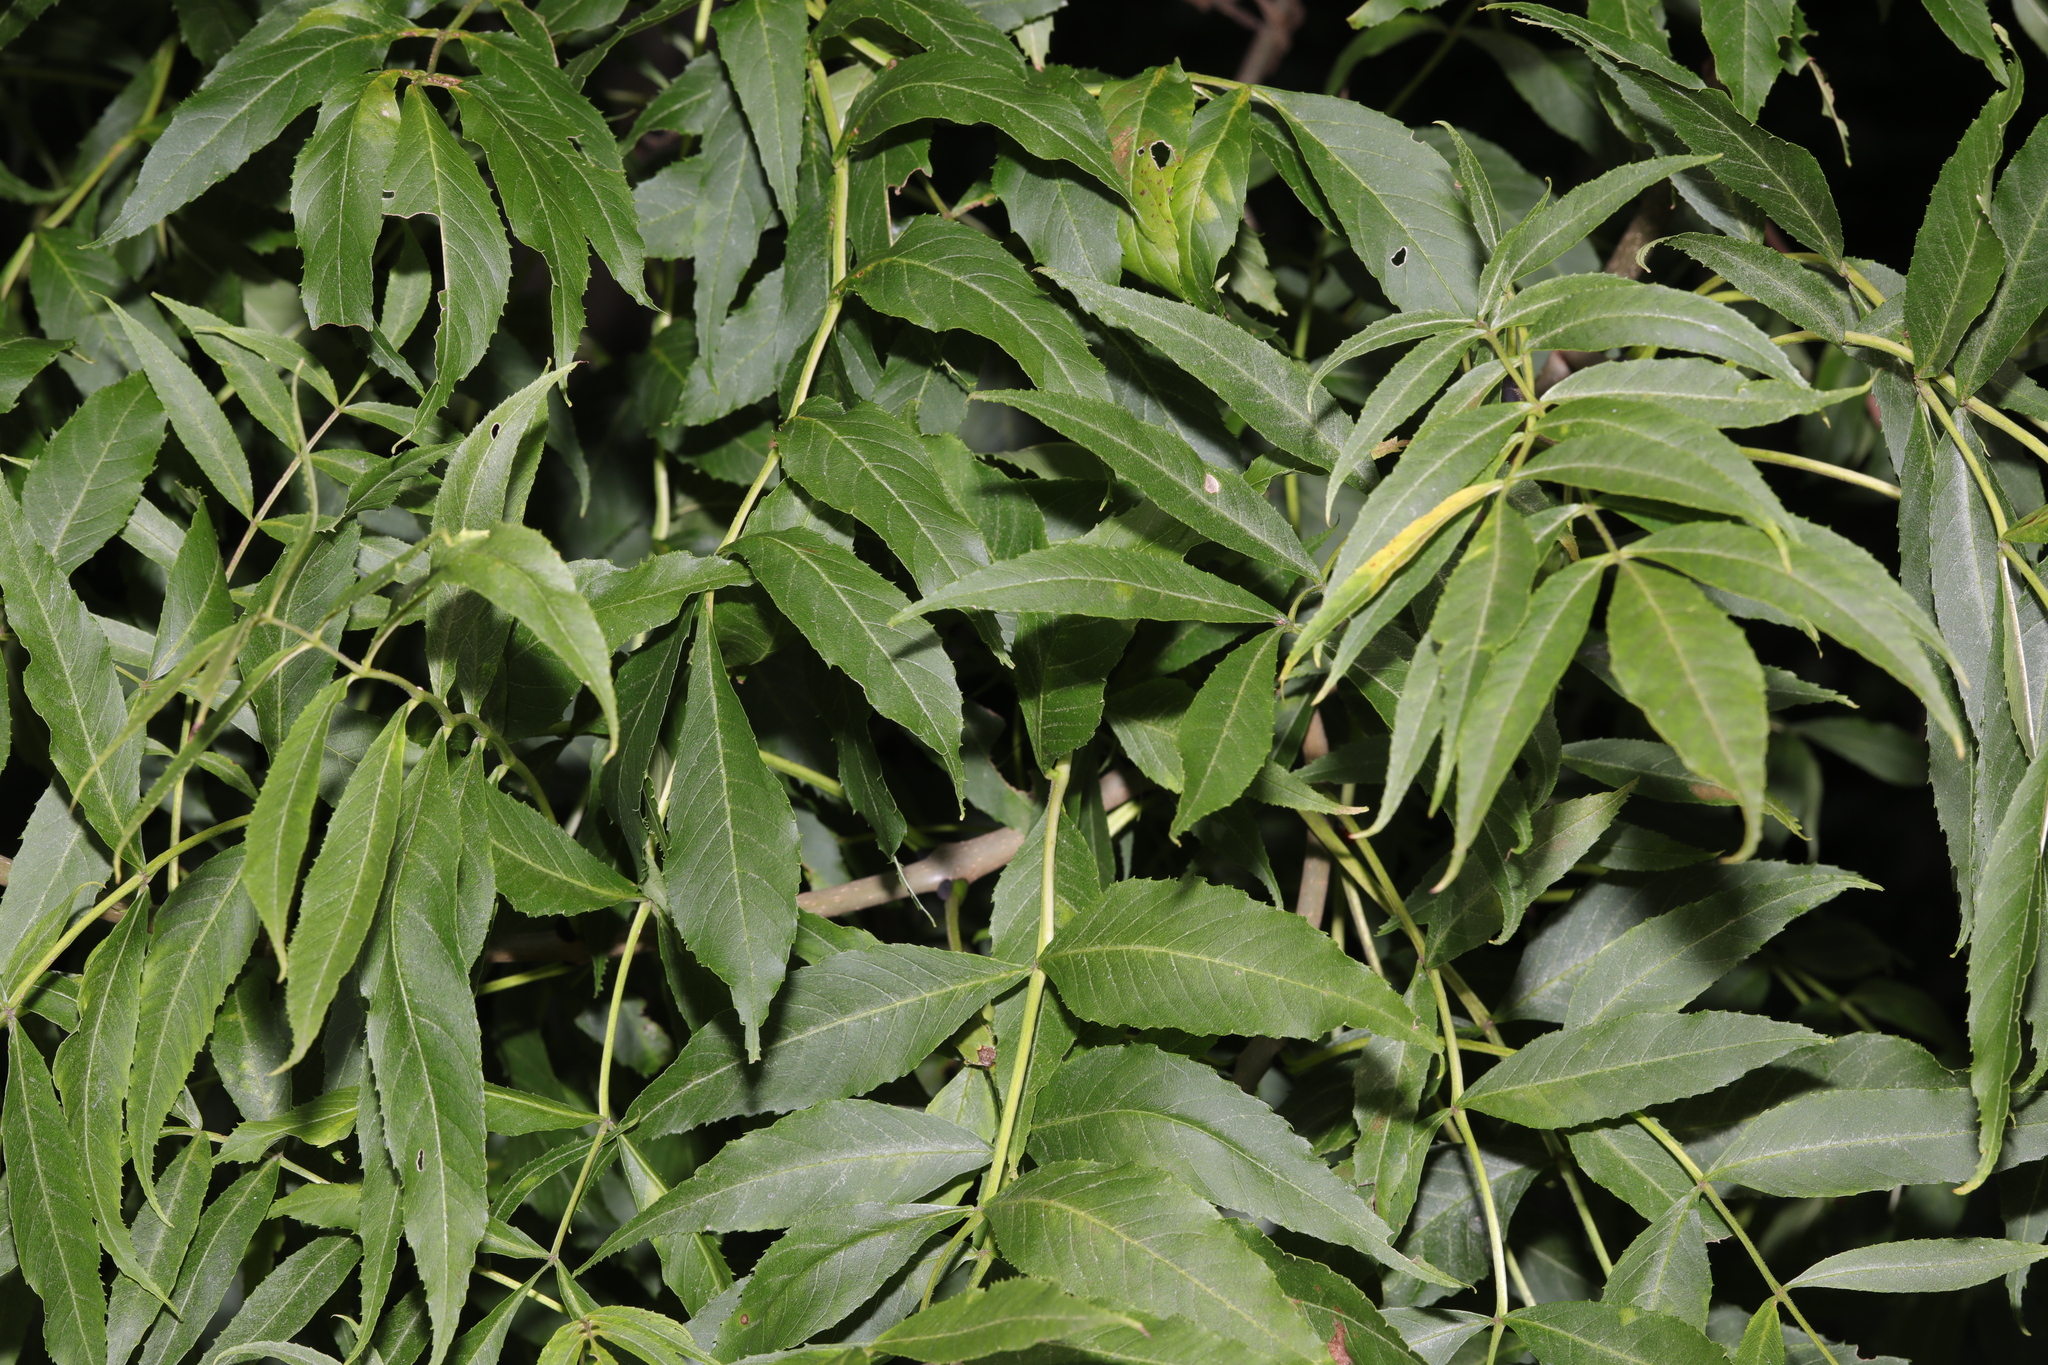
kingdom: Plantae
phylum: Tracheophyta
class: Magnoliopsida
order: Lamiales
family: Oleaceae
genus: Fraxinus
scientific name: Fraxinus excelsior
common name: European ash
